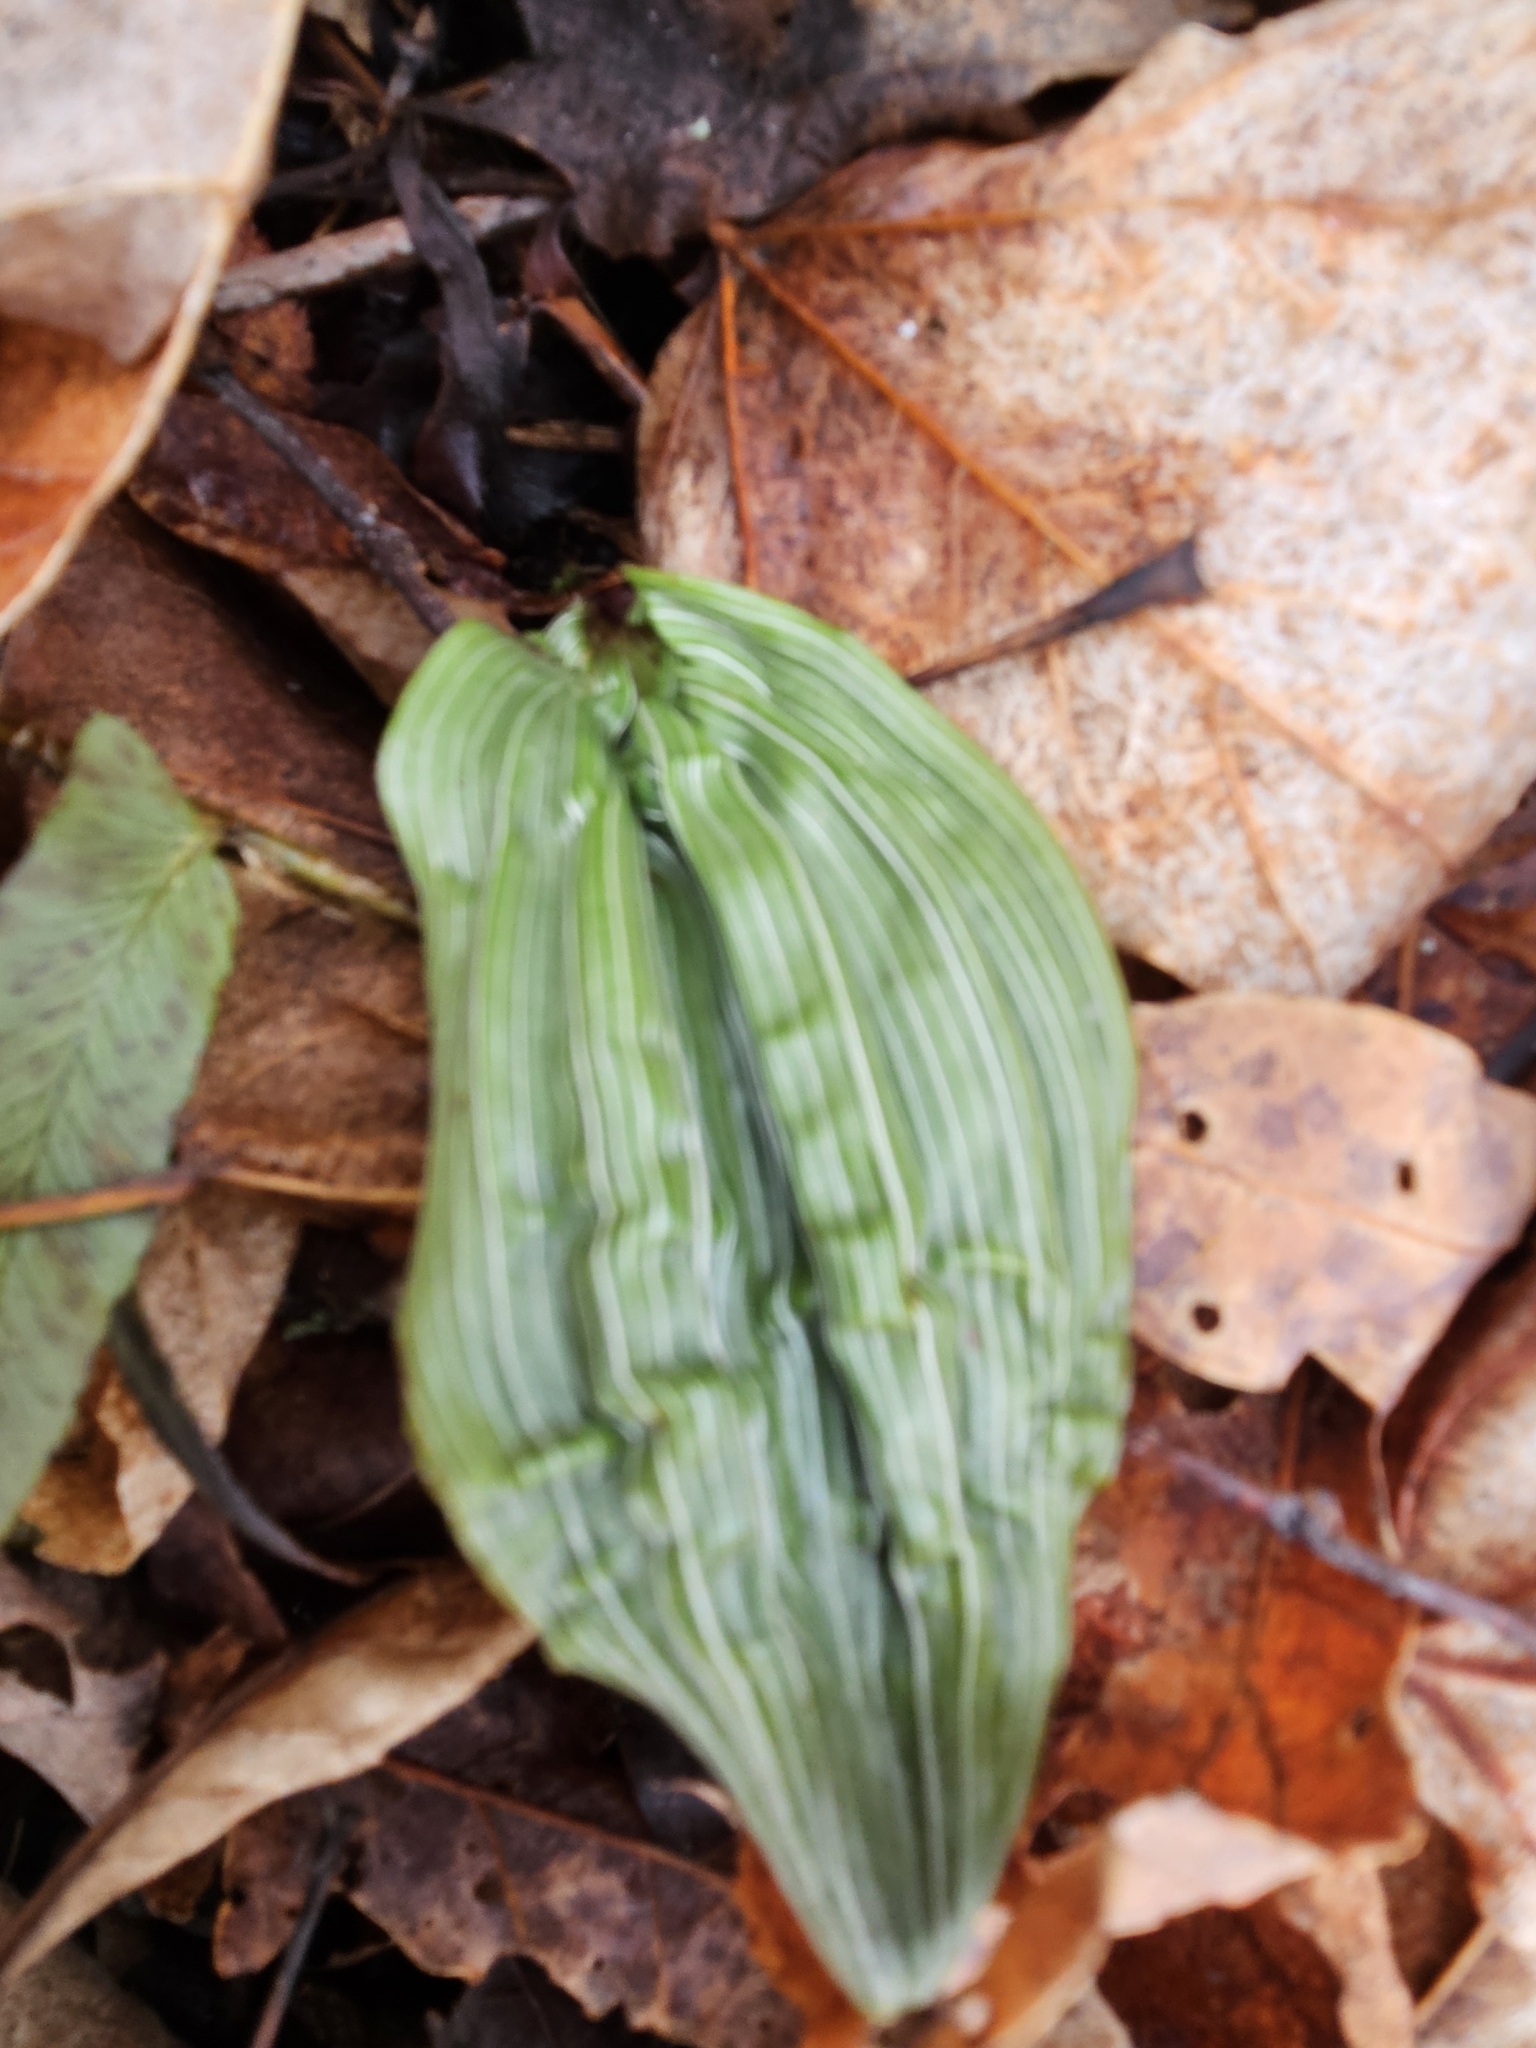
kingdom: Plantae
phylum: Tracheophyta
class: Liliopsida
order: Asparagales
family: Orchidaceae
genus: Aplectrum
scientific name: Aplectrum hyemale
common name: Adam-and-eve
